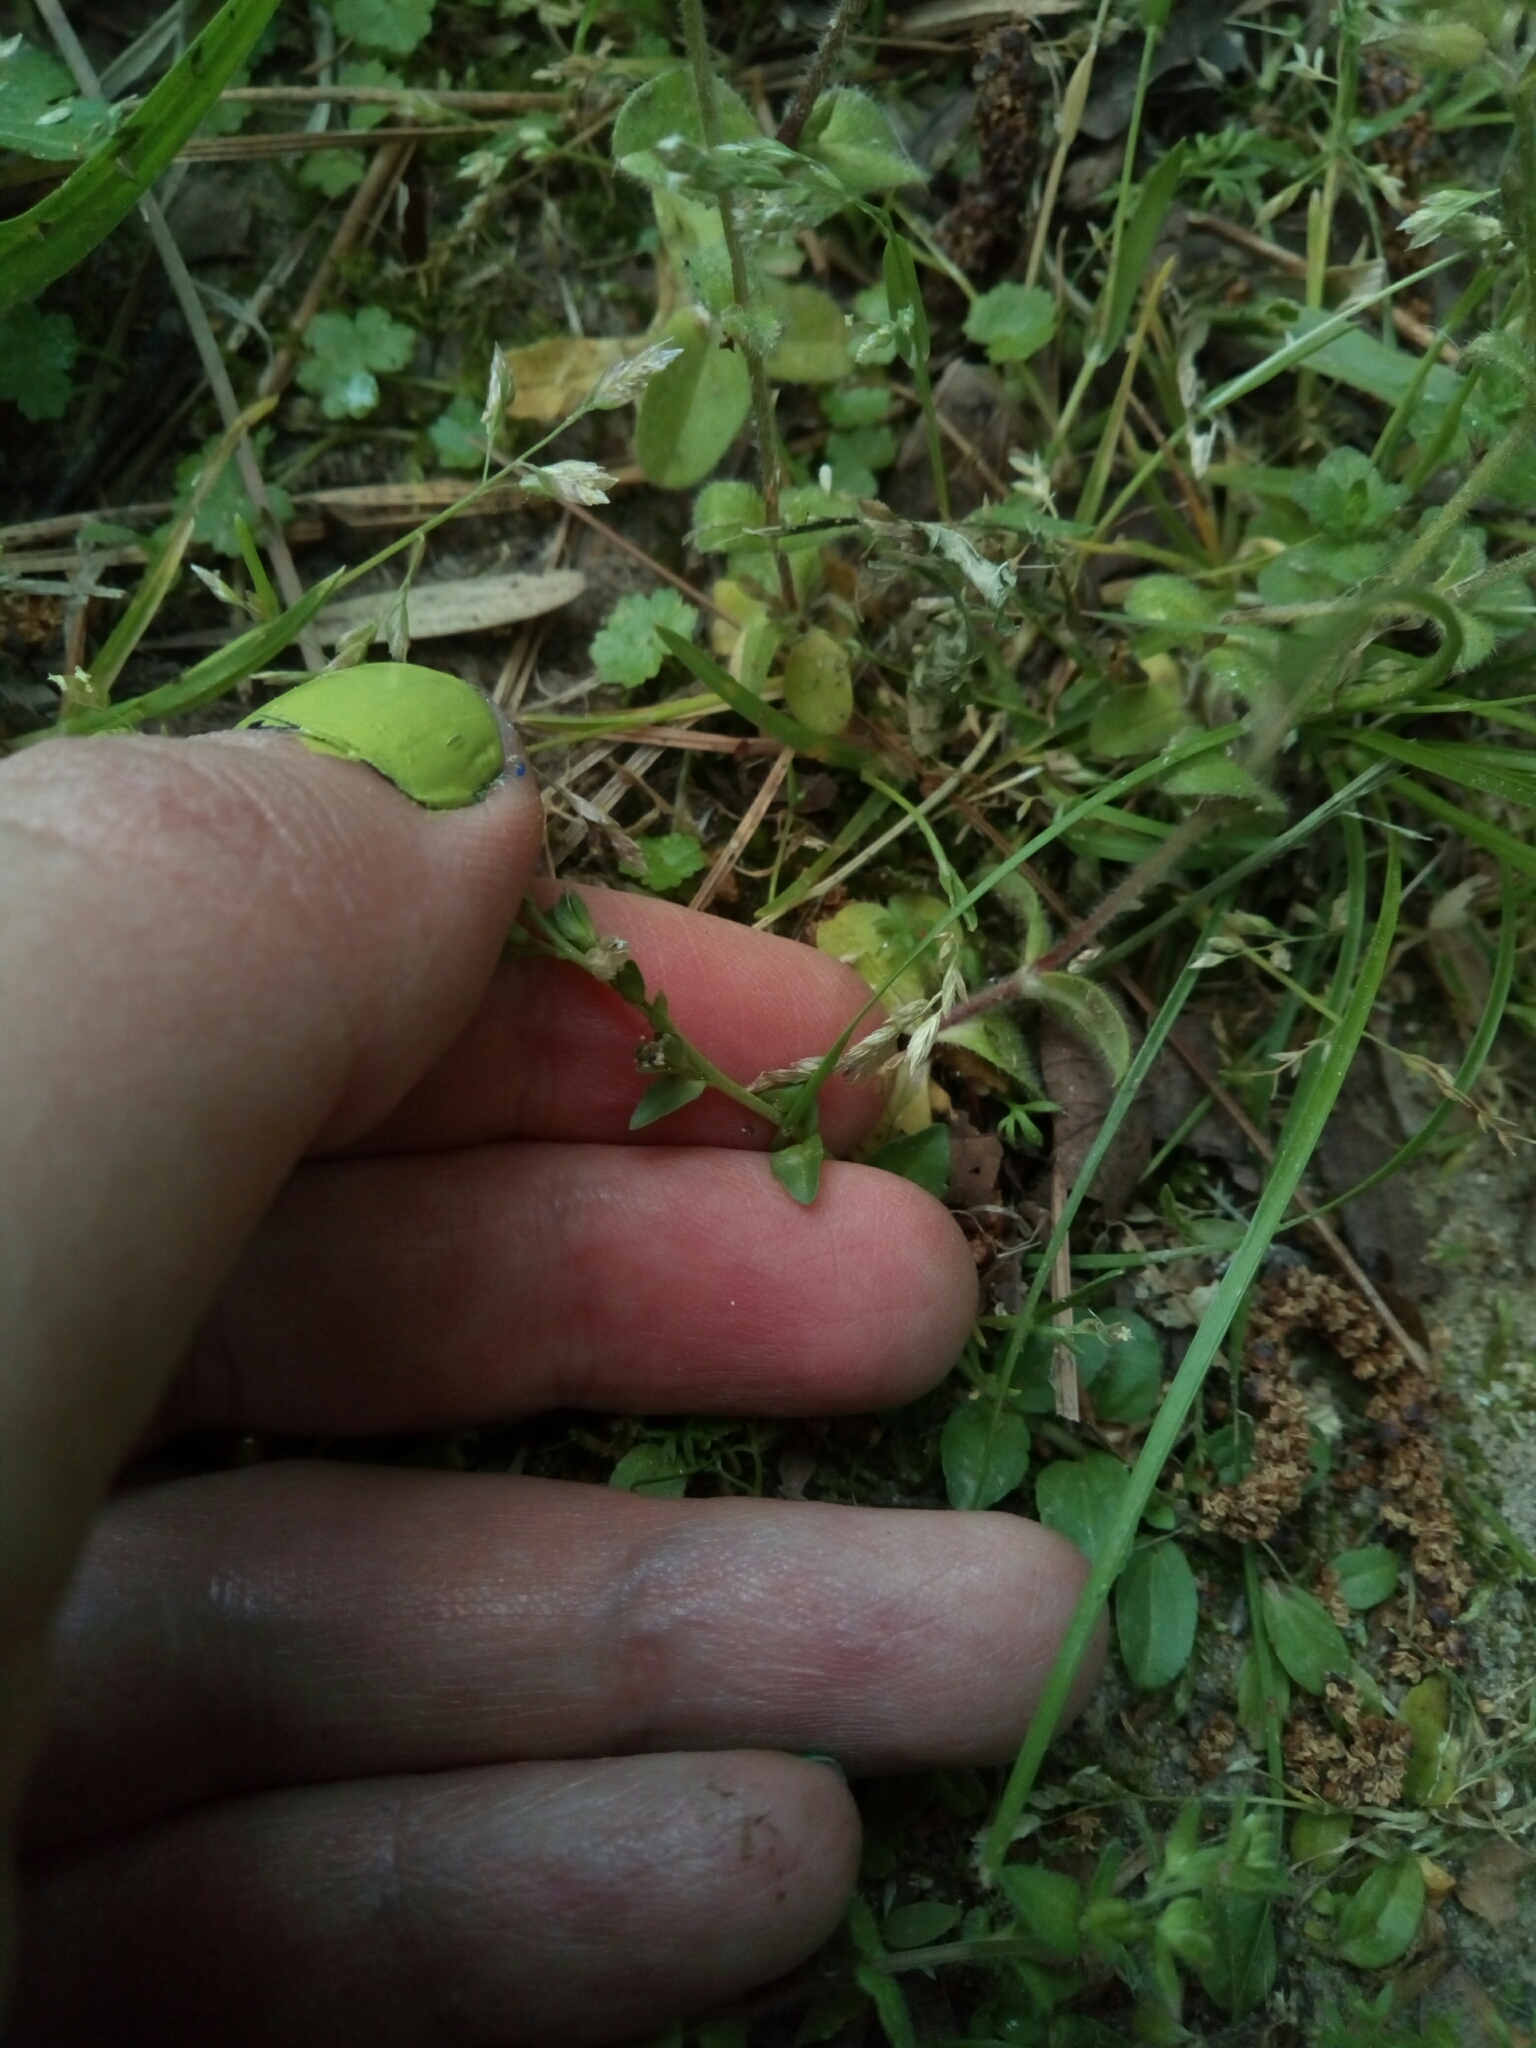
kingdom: Plantae
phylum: Tracheophyta
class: Magnoliopsida
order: Lamiales
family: Plantaginaceae
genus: Veronica
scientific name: Veronica serpyllifolia
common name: Thyme-leaved speedwell
